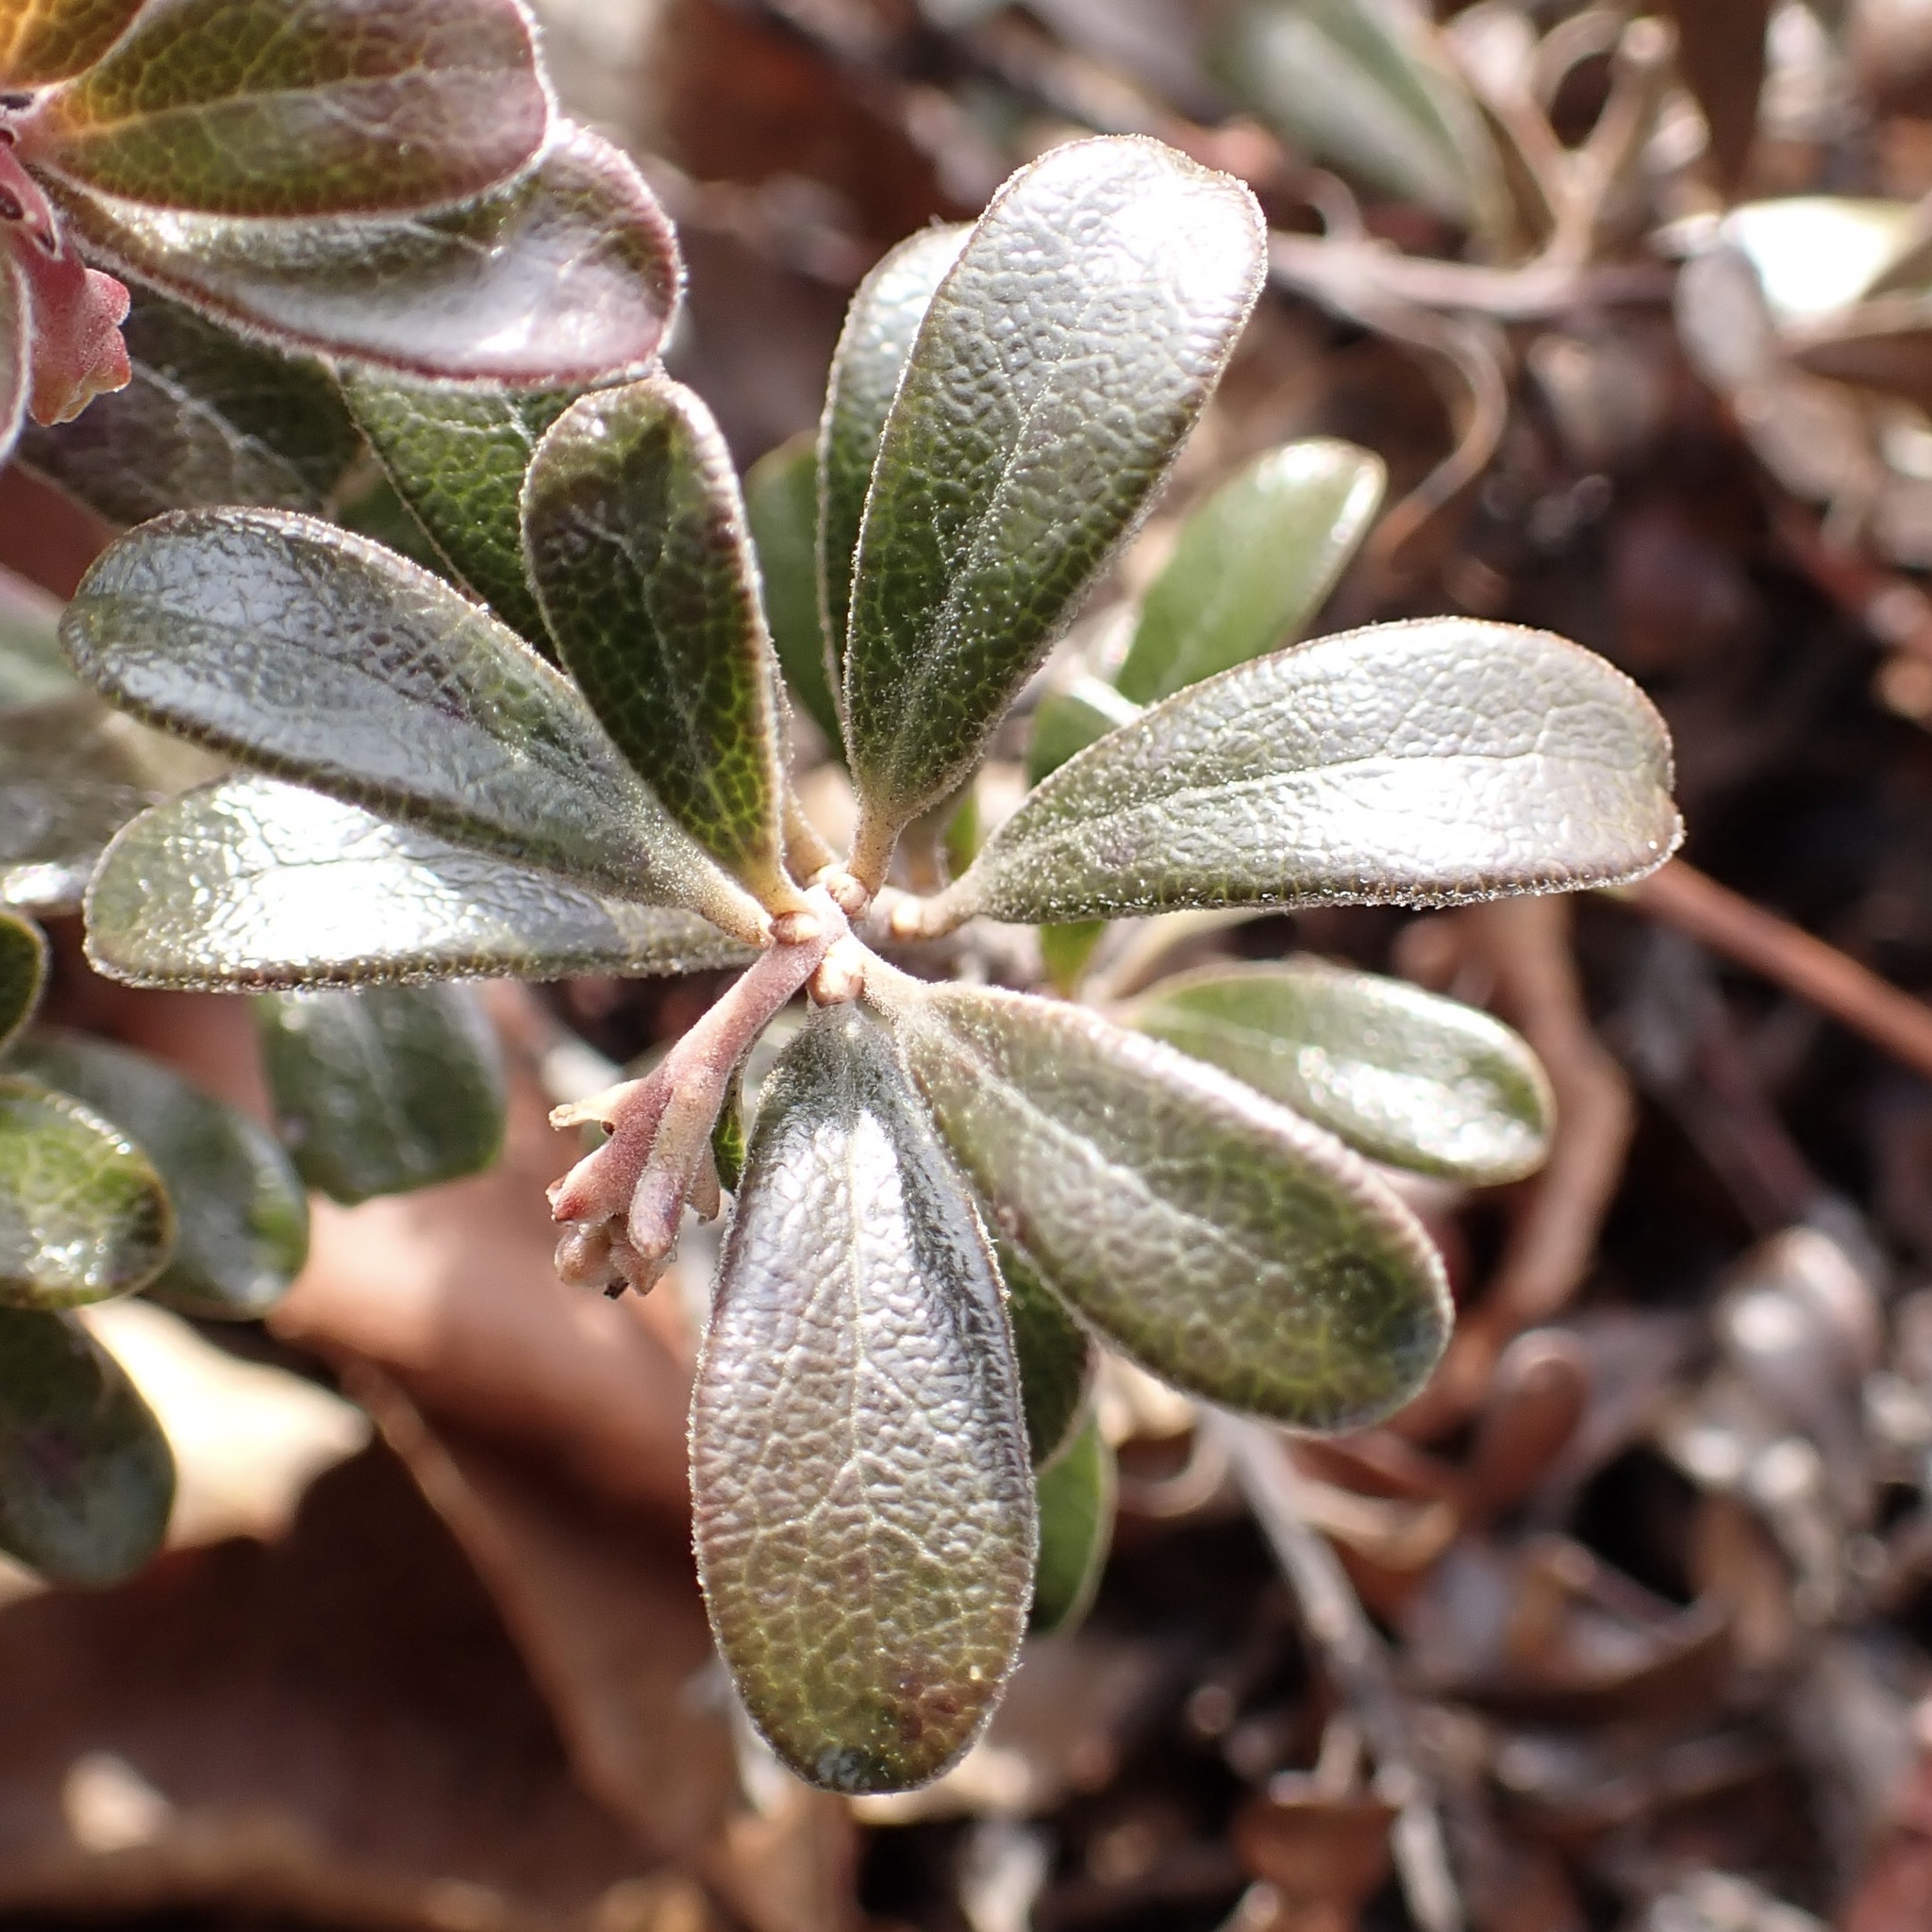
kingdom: Plantae
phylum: Tracheophyta
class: Magnoliopsida
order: Ericales
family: Ericaceae
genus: Arctostaphylos
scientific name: Arctostaphylos uva-ursi
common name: Bearberry
